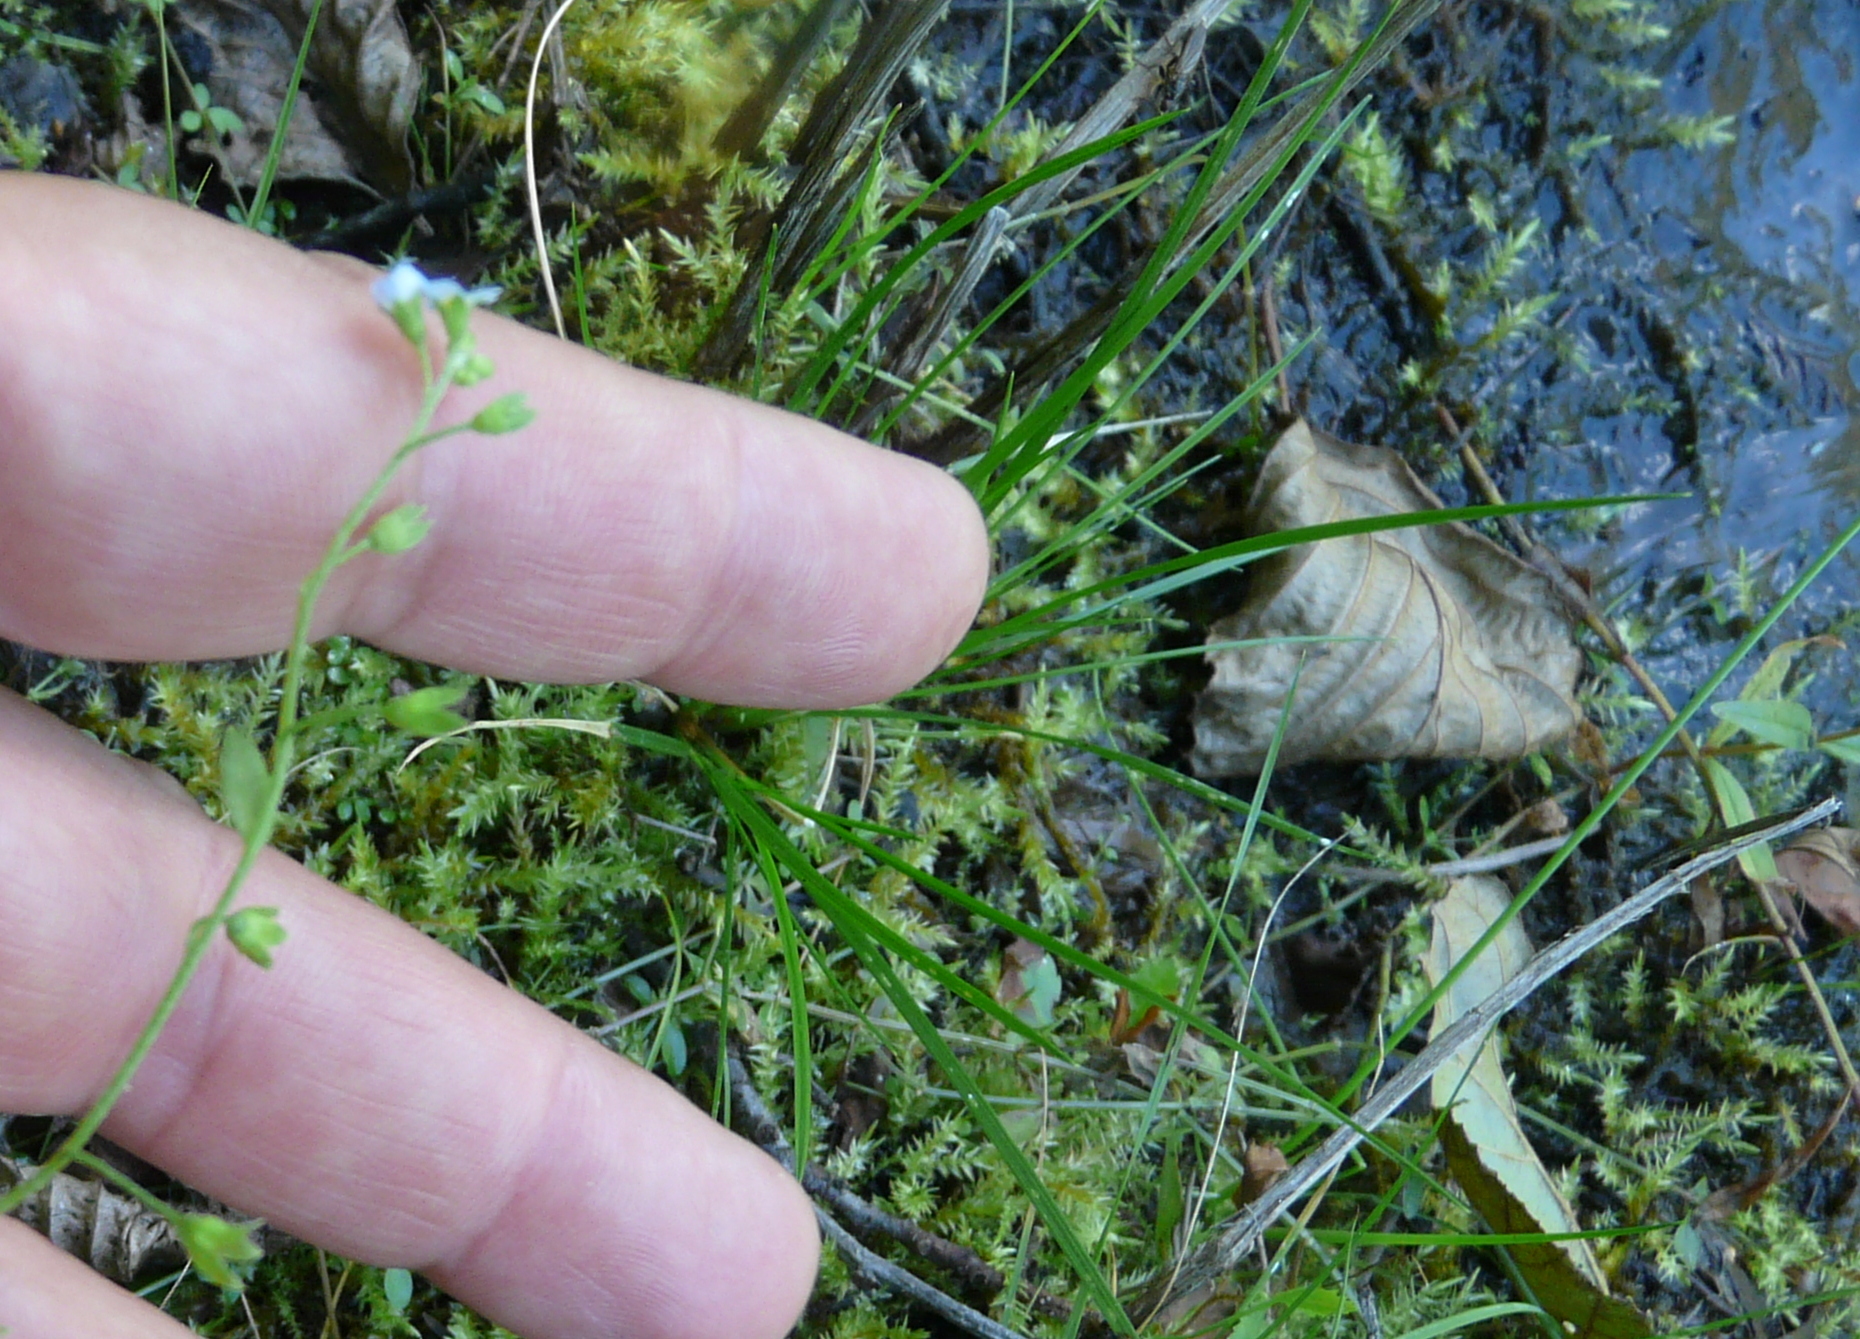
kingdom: Plantae
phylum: Tracheophyta
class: Magnoliopsida
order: Boraginales
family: Boraginaceae
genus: Myosotis
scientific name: Myosotis scorpioides
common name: Water forget-me-not
